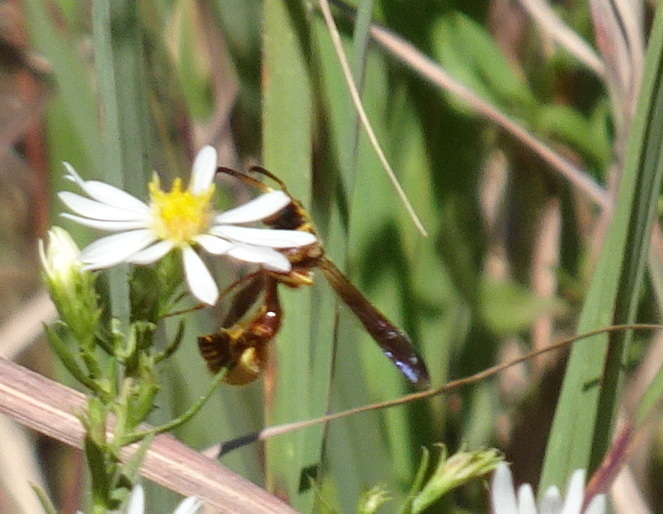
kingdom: Animalia
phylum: Arthropoda
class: Insecta
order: Hymenoptera
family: Vespidae
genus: Eumenes
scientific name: Eumenes bollii
